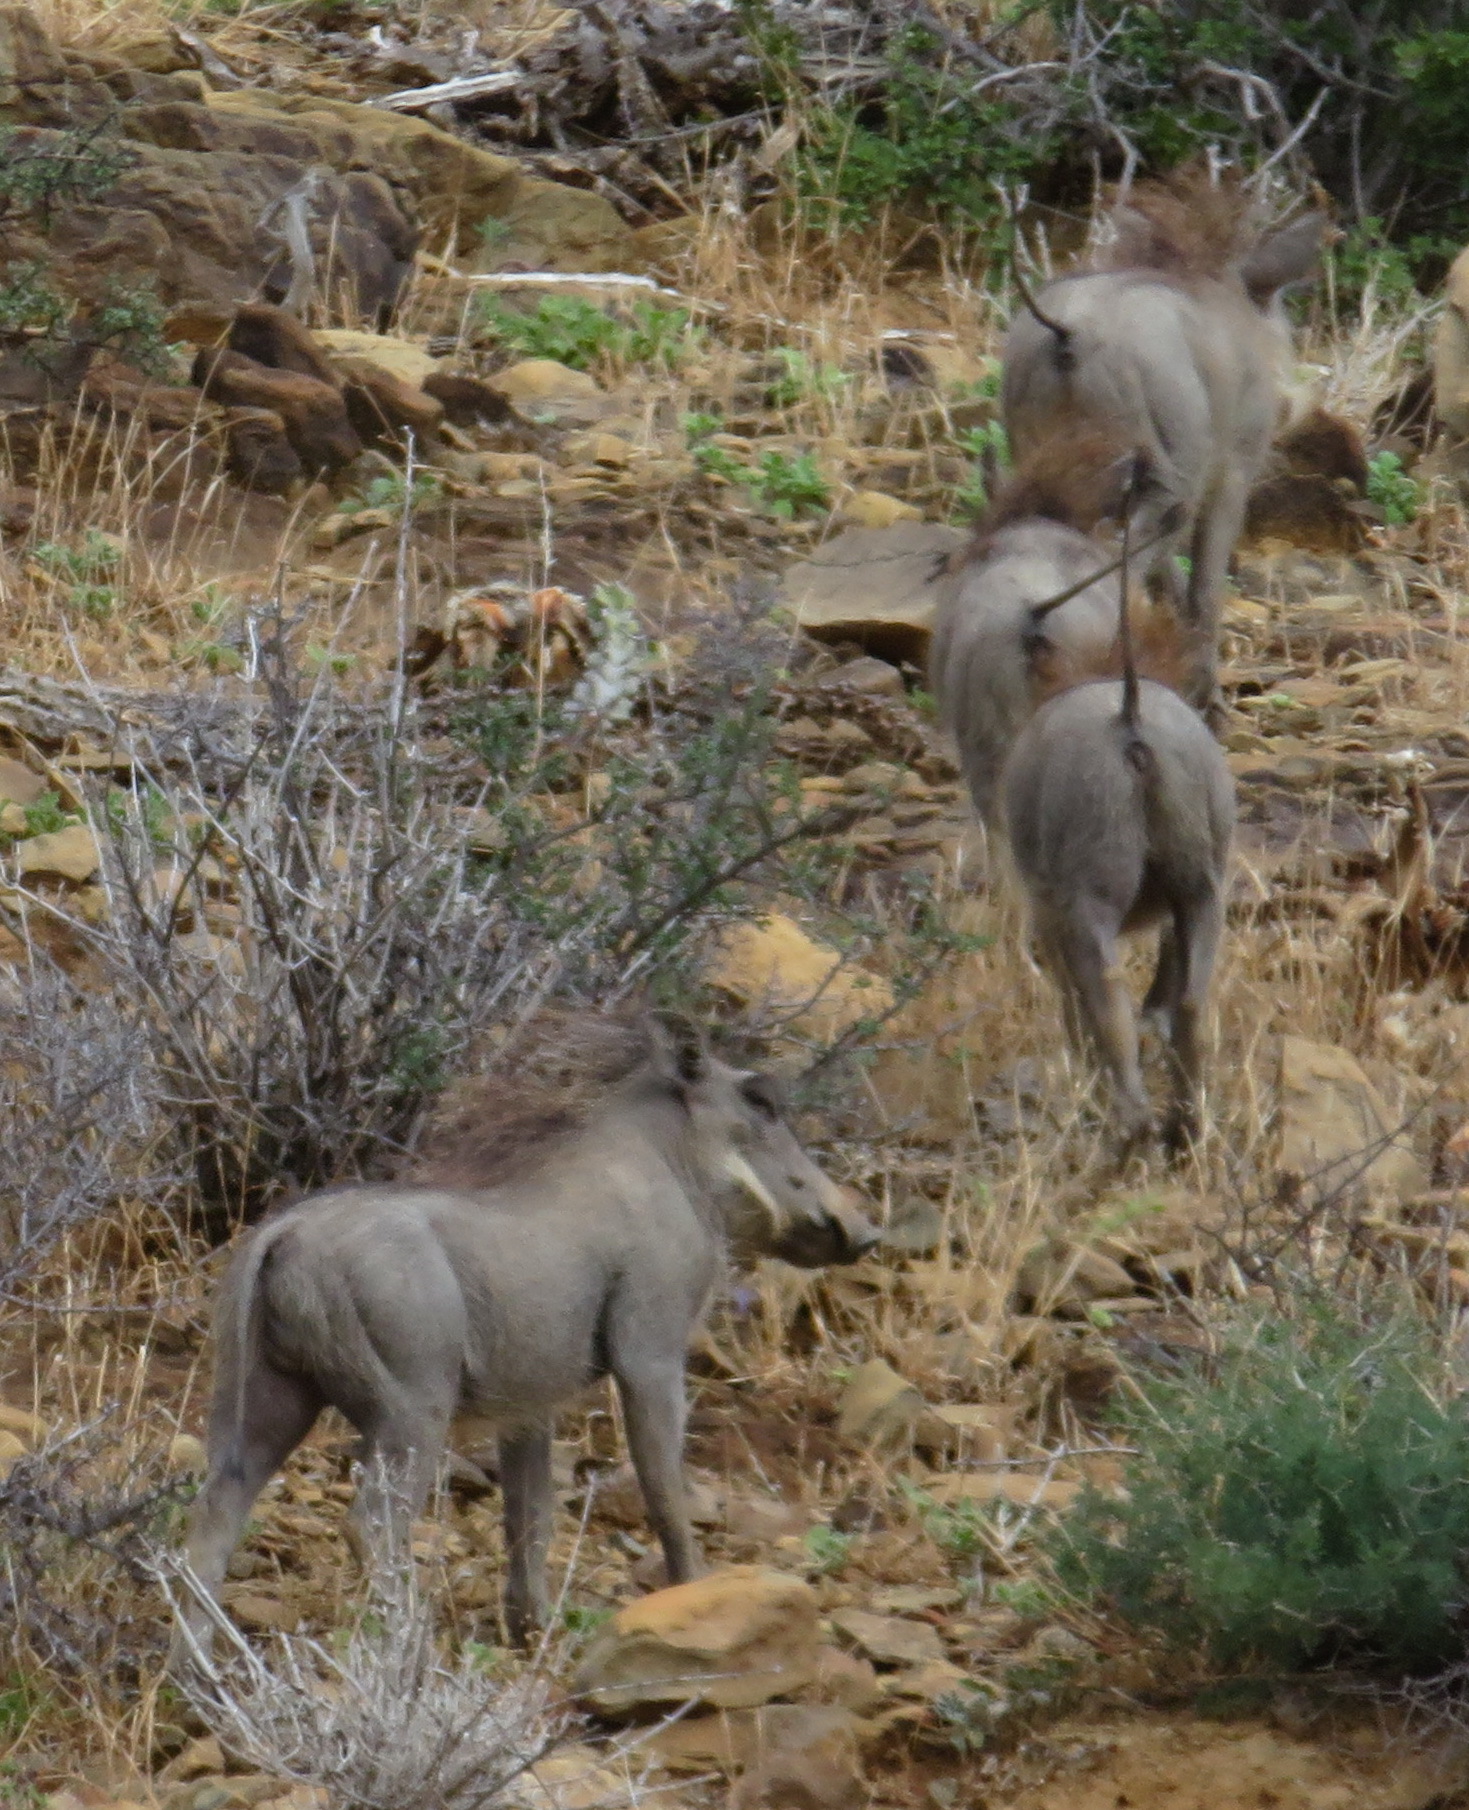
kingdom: Animalia
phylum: Chordata
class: Mammalia
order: Artiodactyla
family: Suidae
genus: Phacochoerus
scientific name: Phacochoerus africanus
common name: Common warthog
